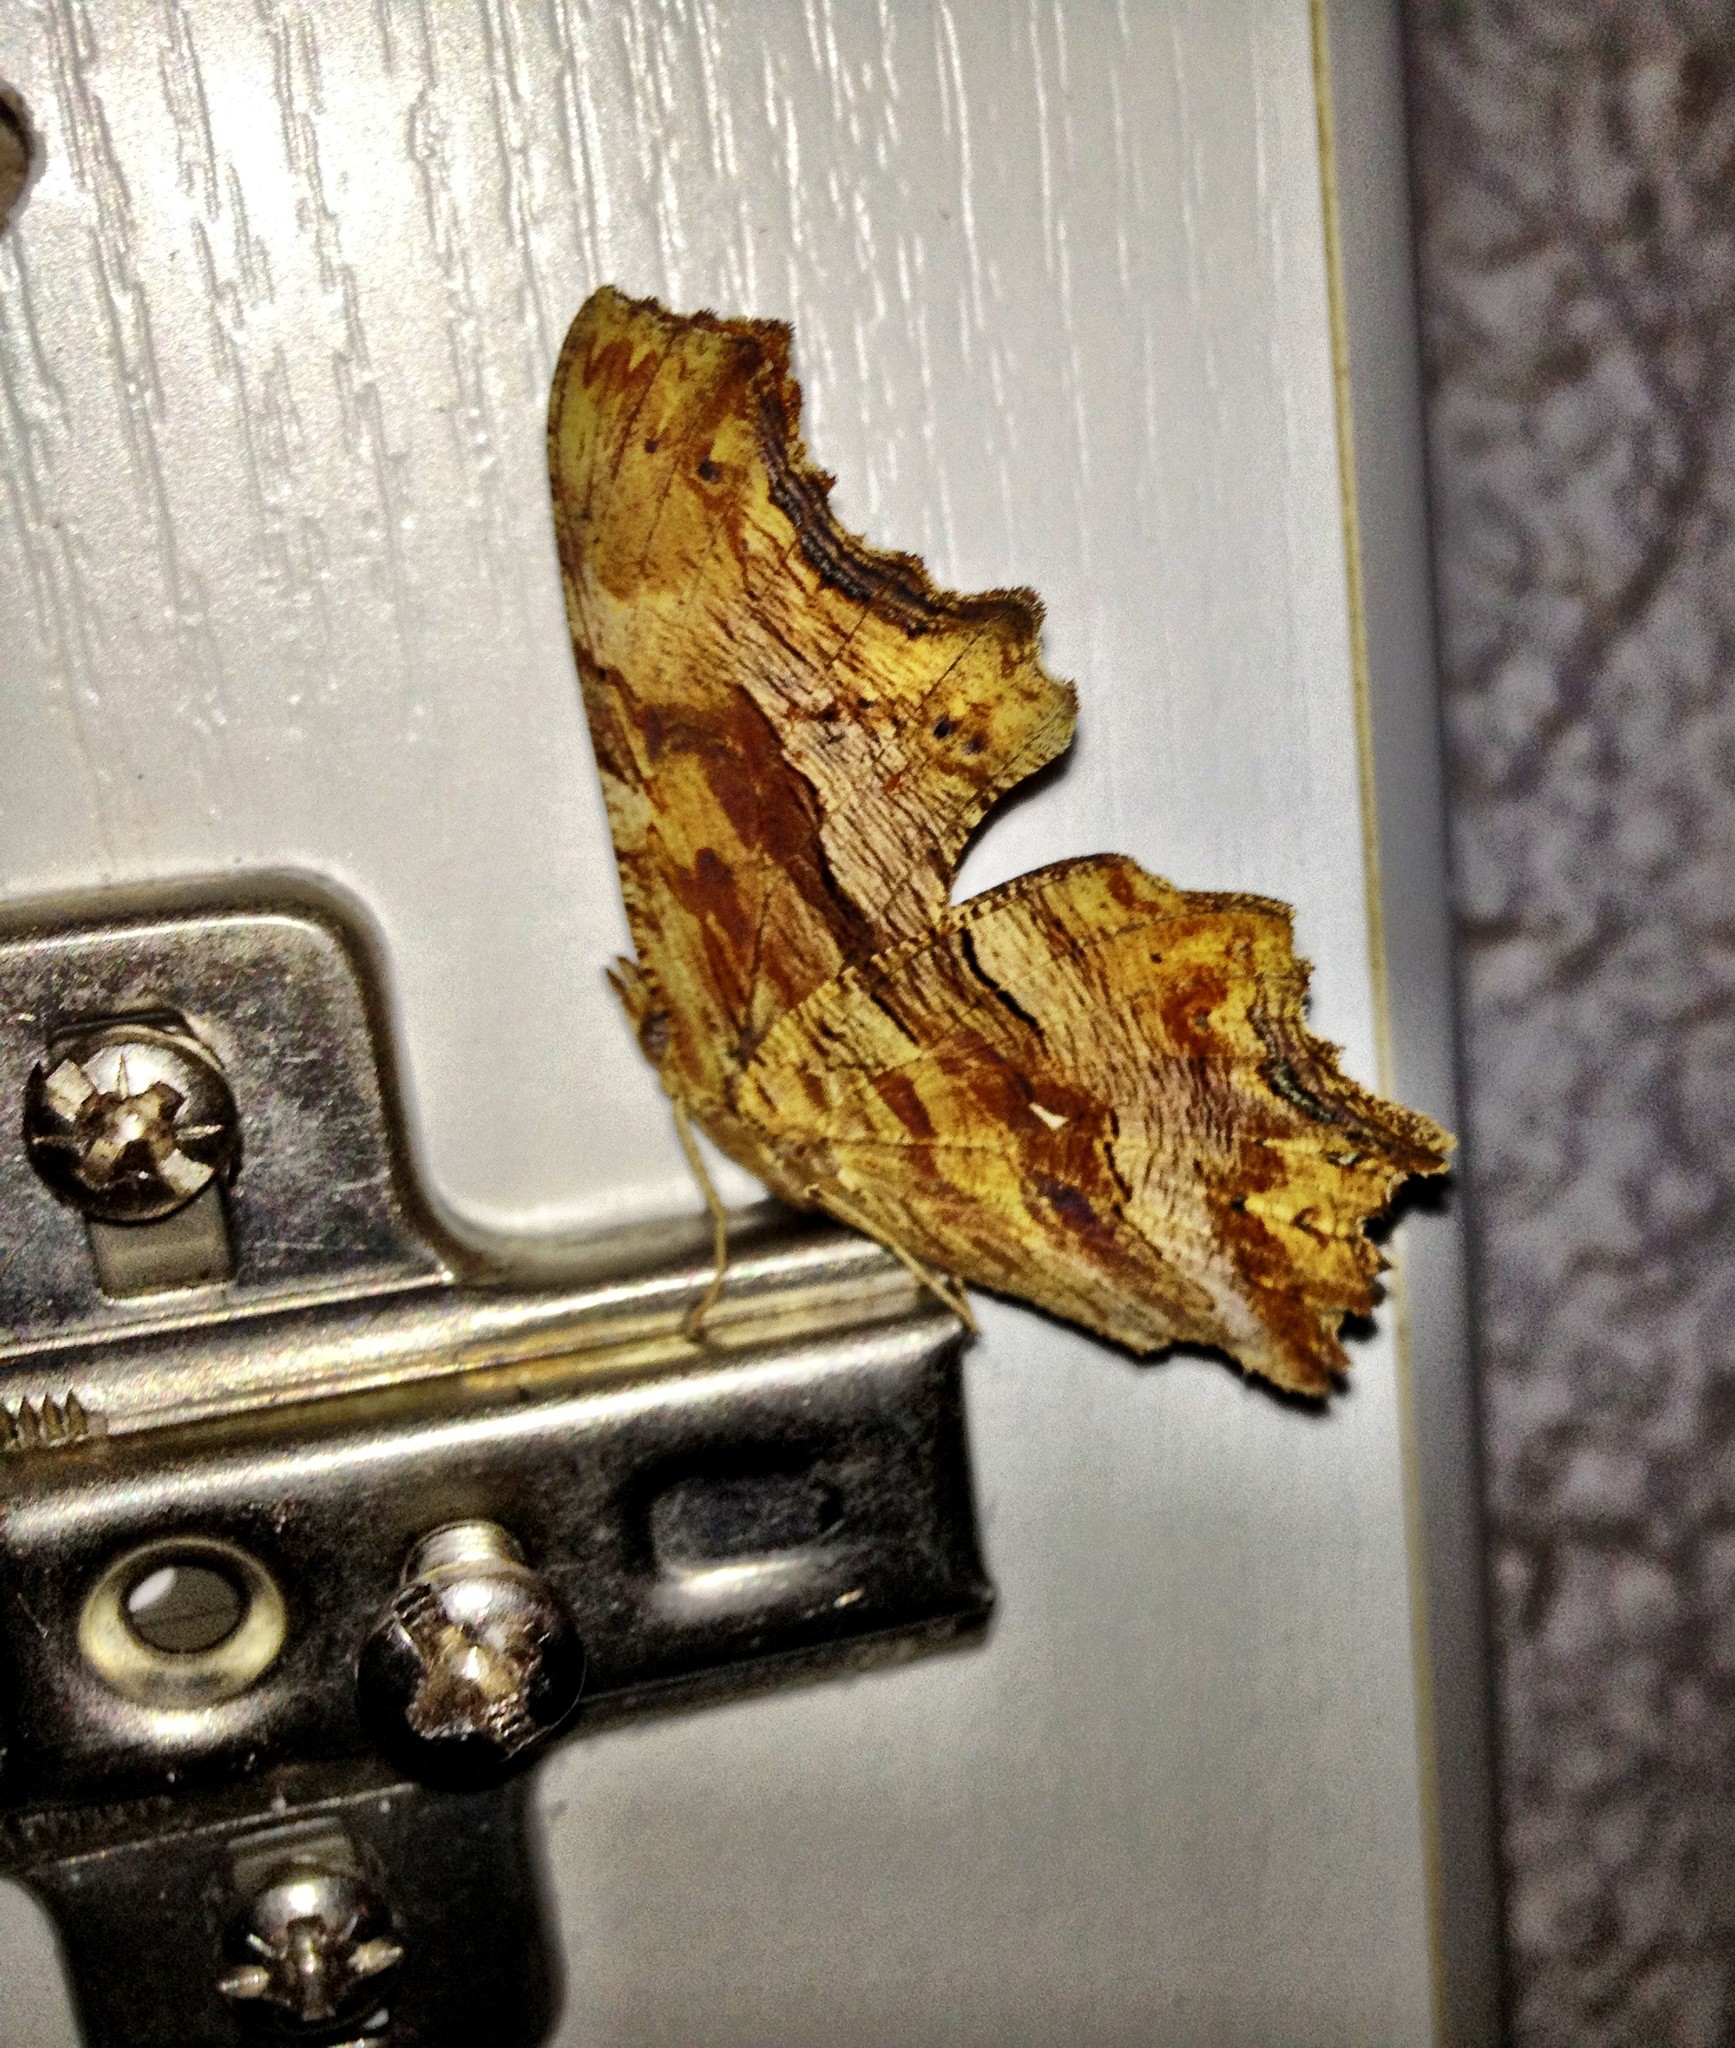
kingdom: Animalia
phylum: Arthropoda
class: Insecta
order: Lepidoptera
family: Nymphalidae
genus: Polygonia
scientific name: Polygonia egea
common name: Southern comma
